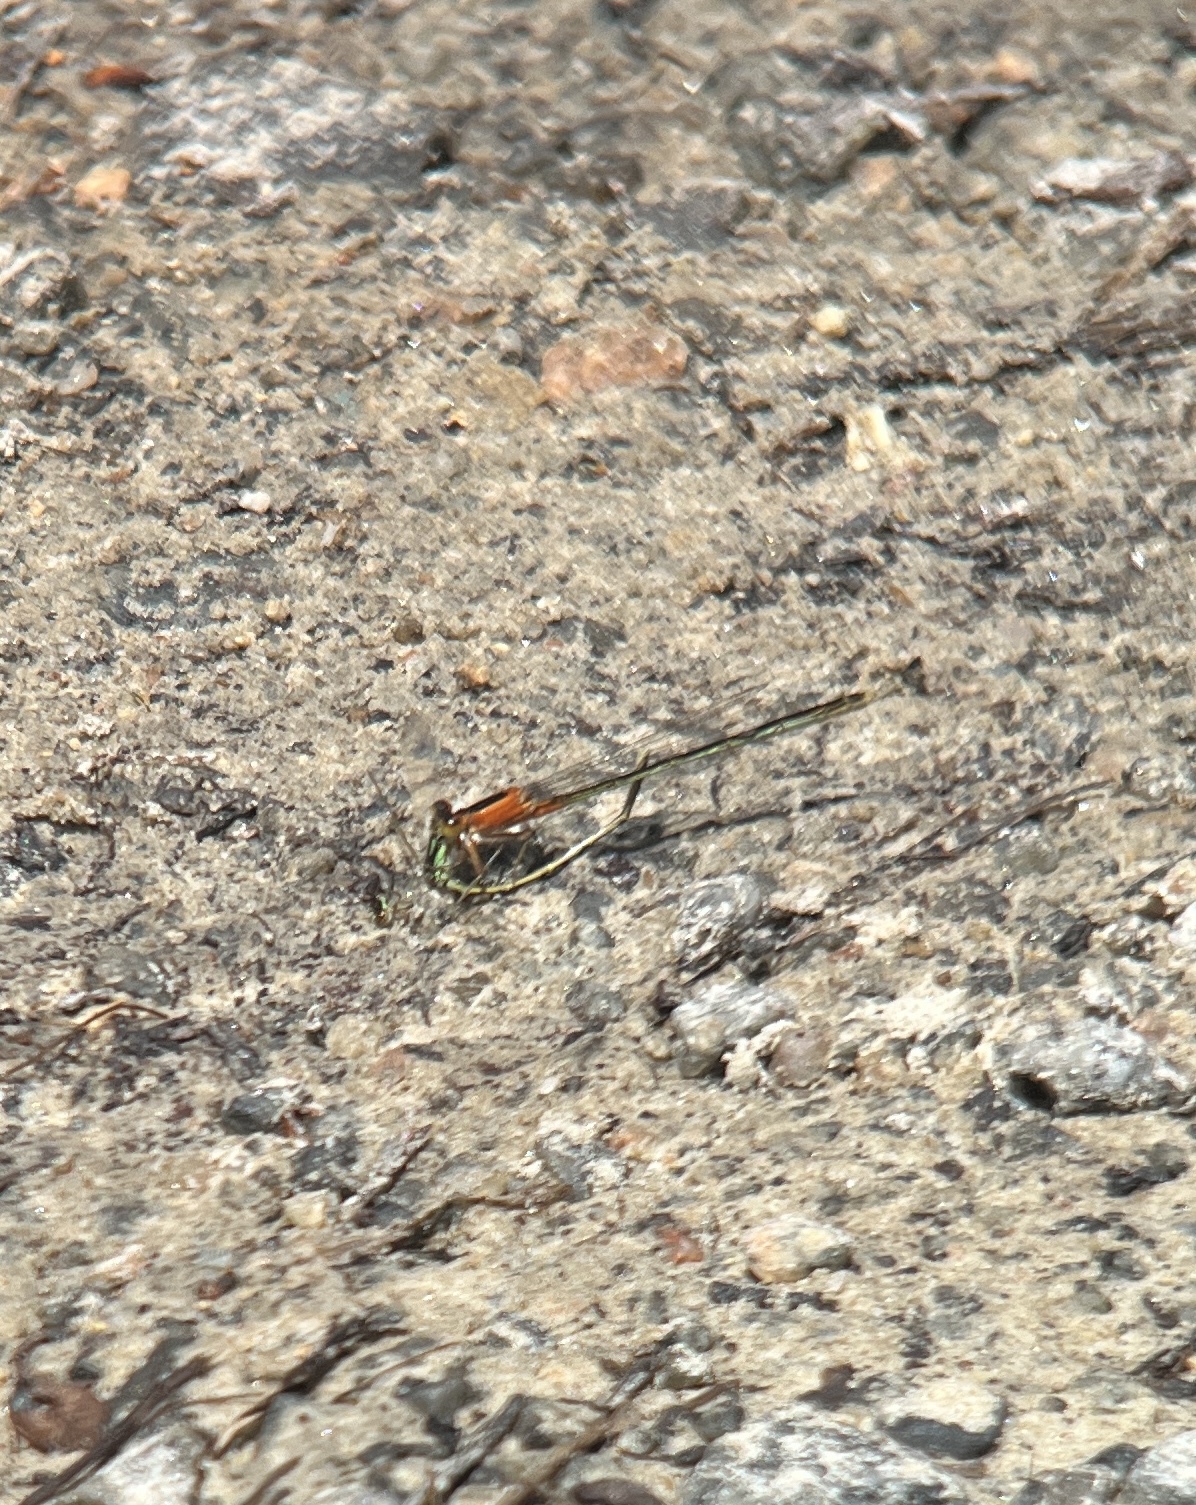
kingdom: Animalia
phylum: Arthropoda
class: Insecta
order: Odonata
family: Coenagrionidae
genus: Ischnura
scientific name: Ischnura posita
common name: Fragile forktail
